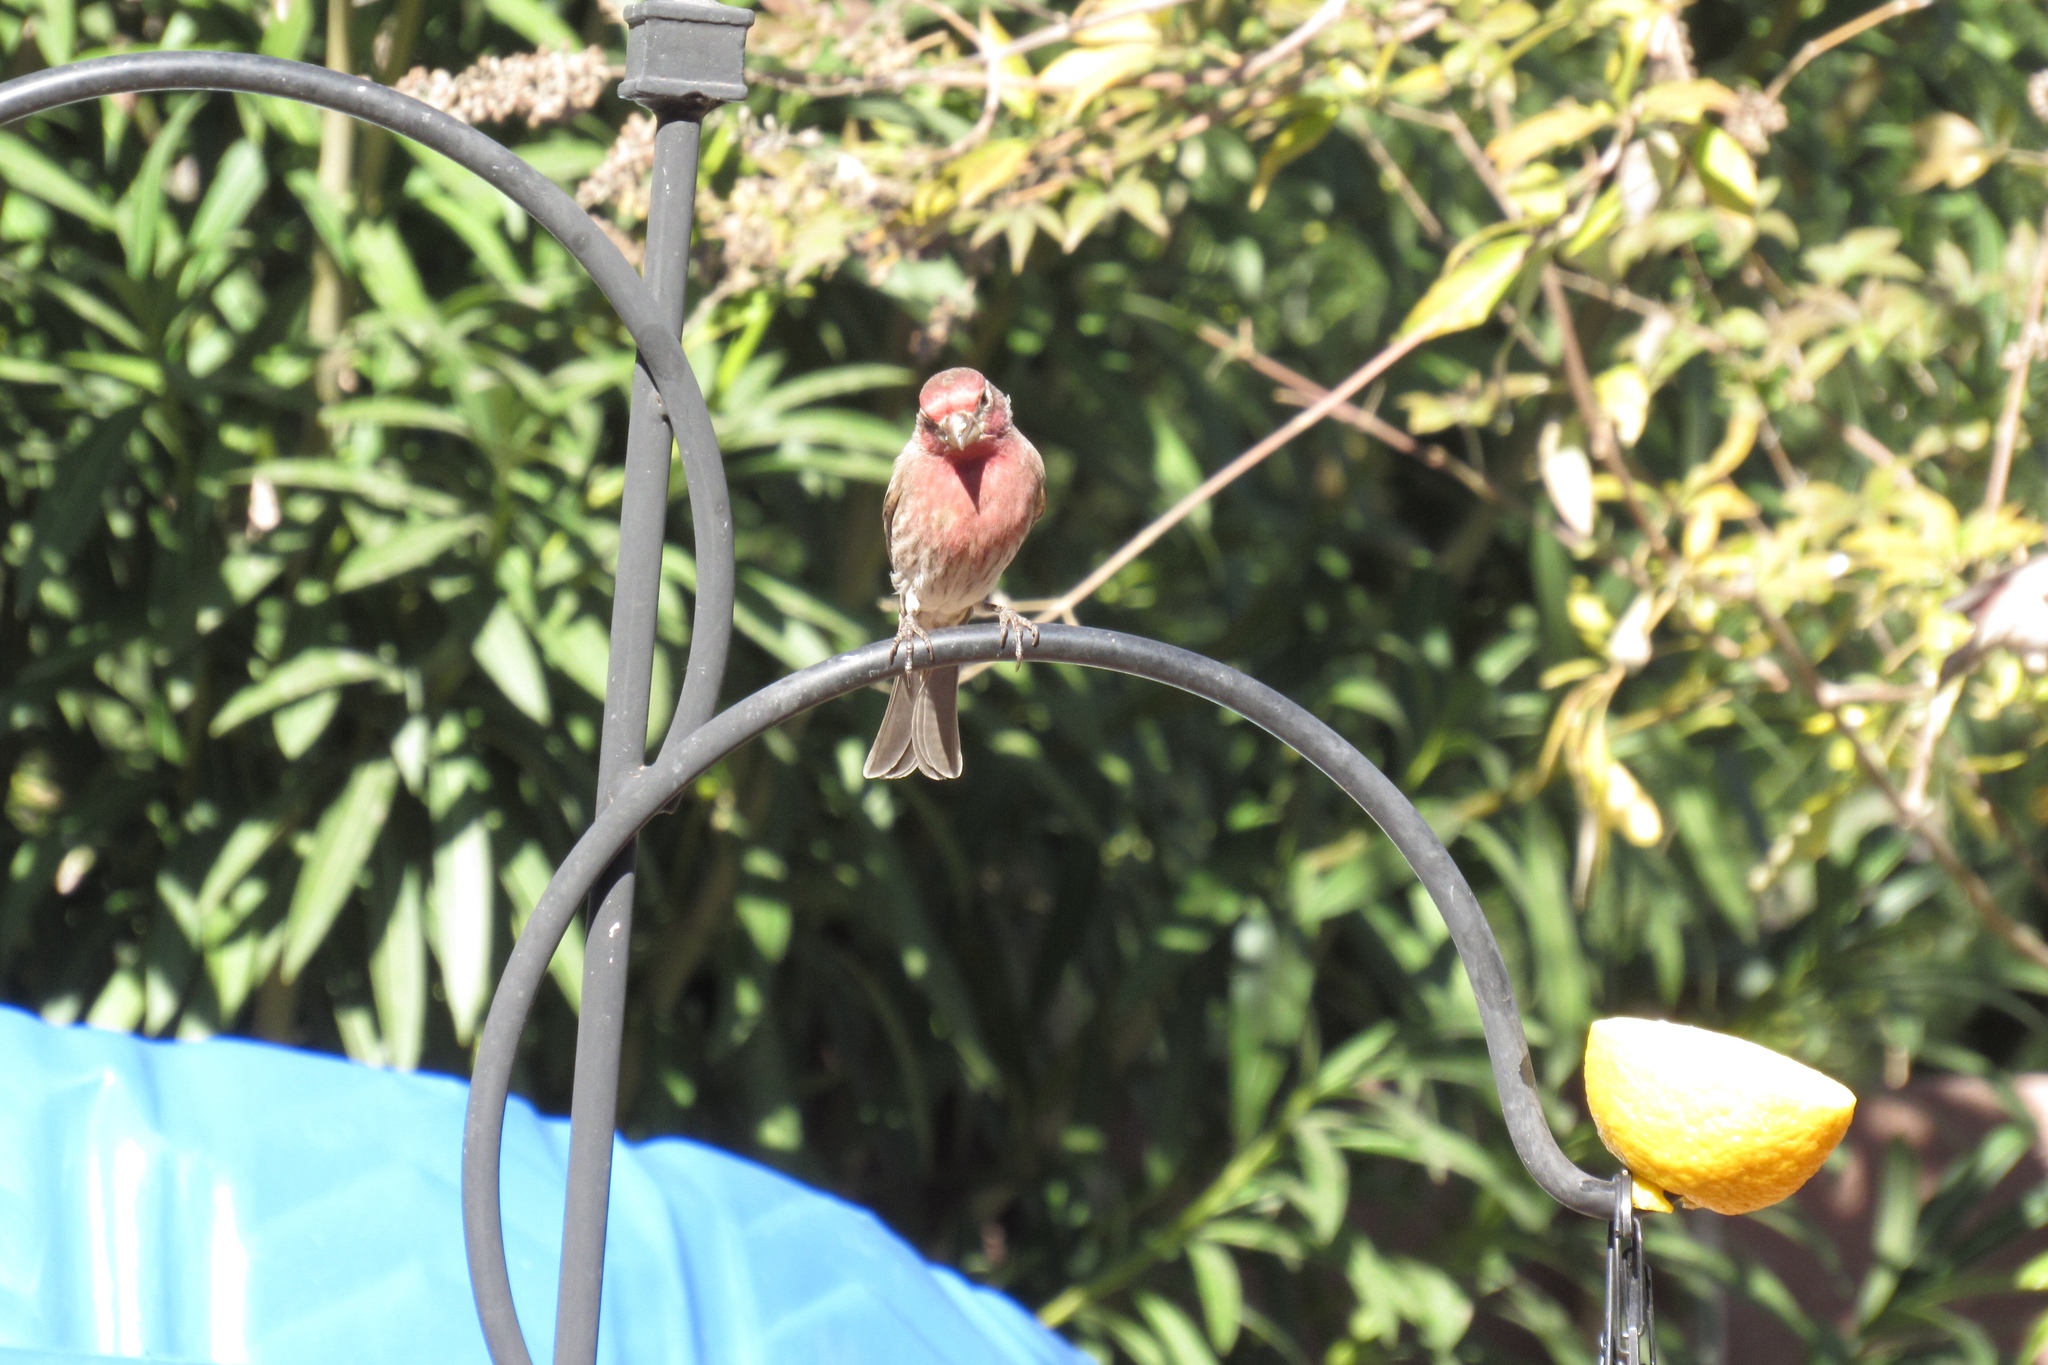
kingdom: Animalia
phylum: Chordata
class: Aves
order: Passeriformes
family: Fringillidae
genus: Haemorhous
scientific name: Haemorhous mexicanus
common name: House finch
